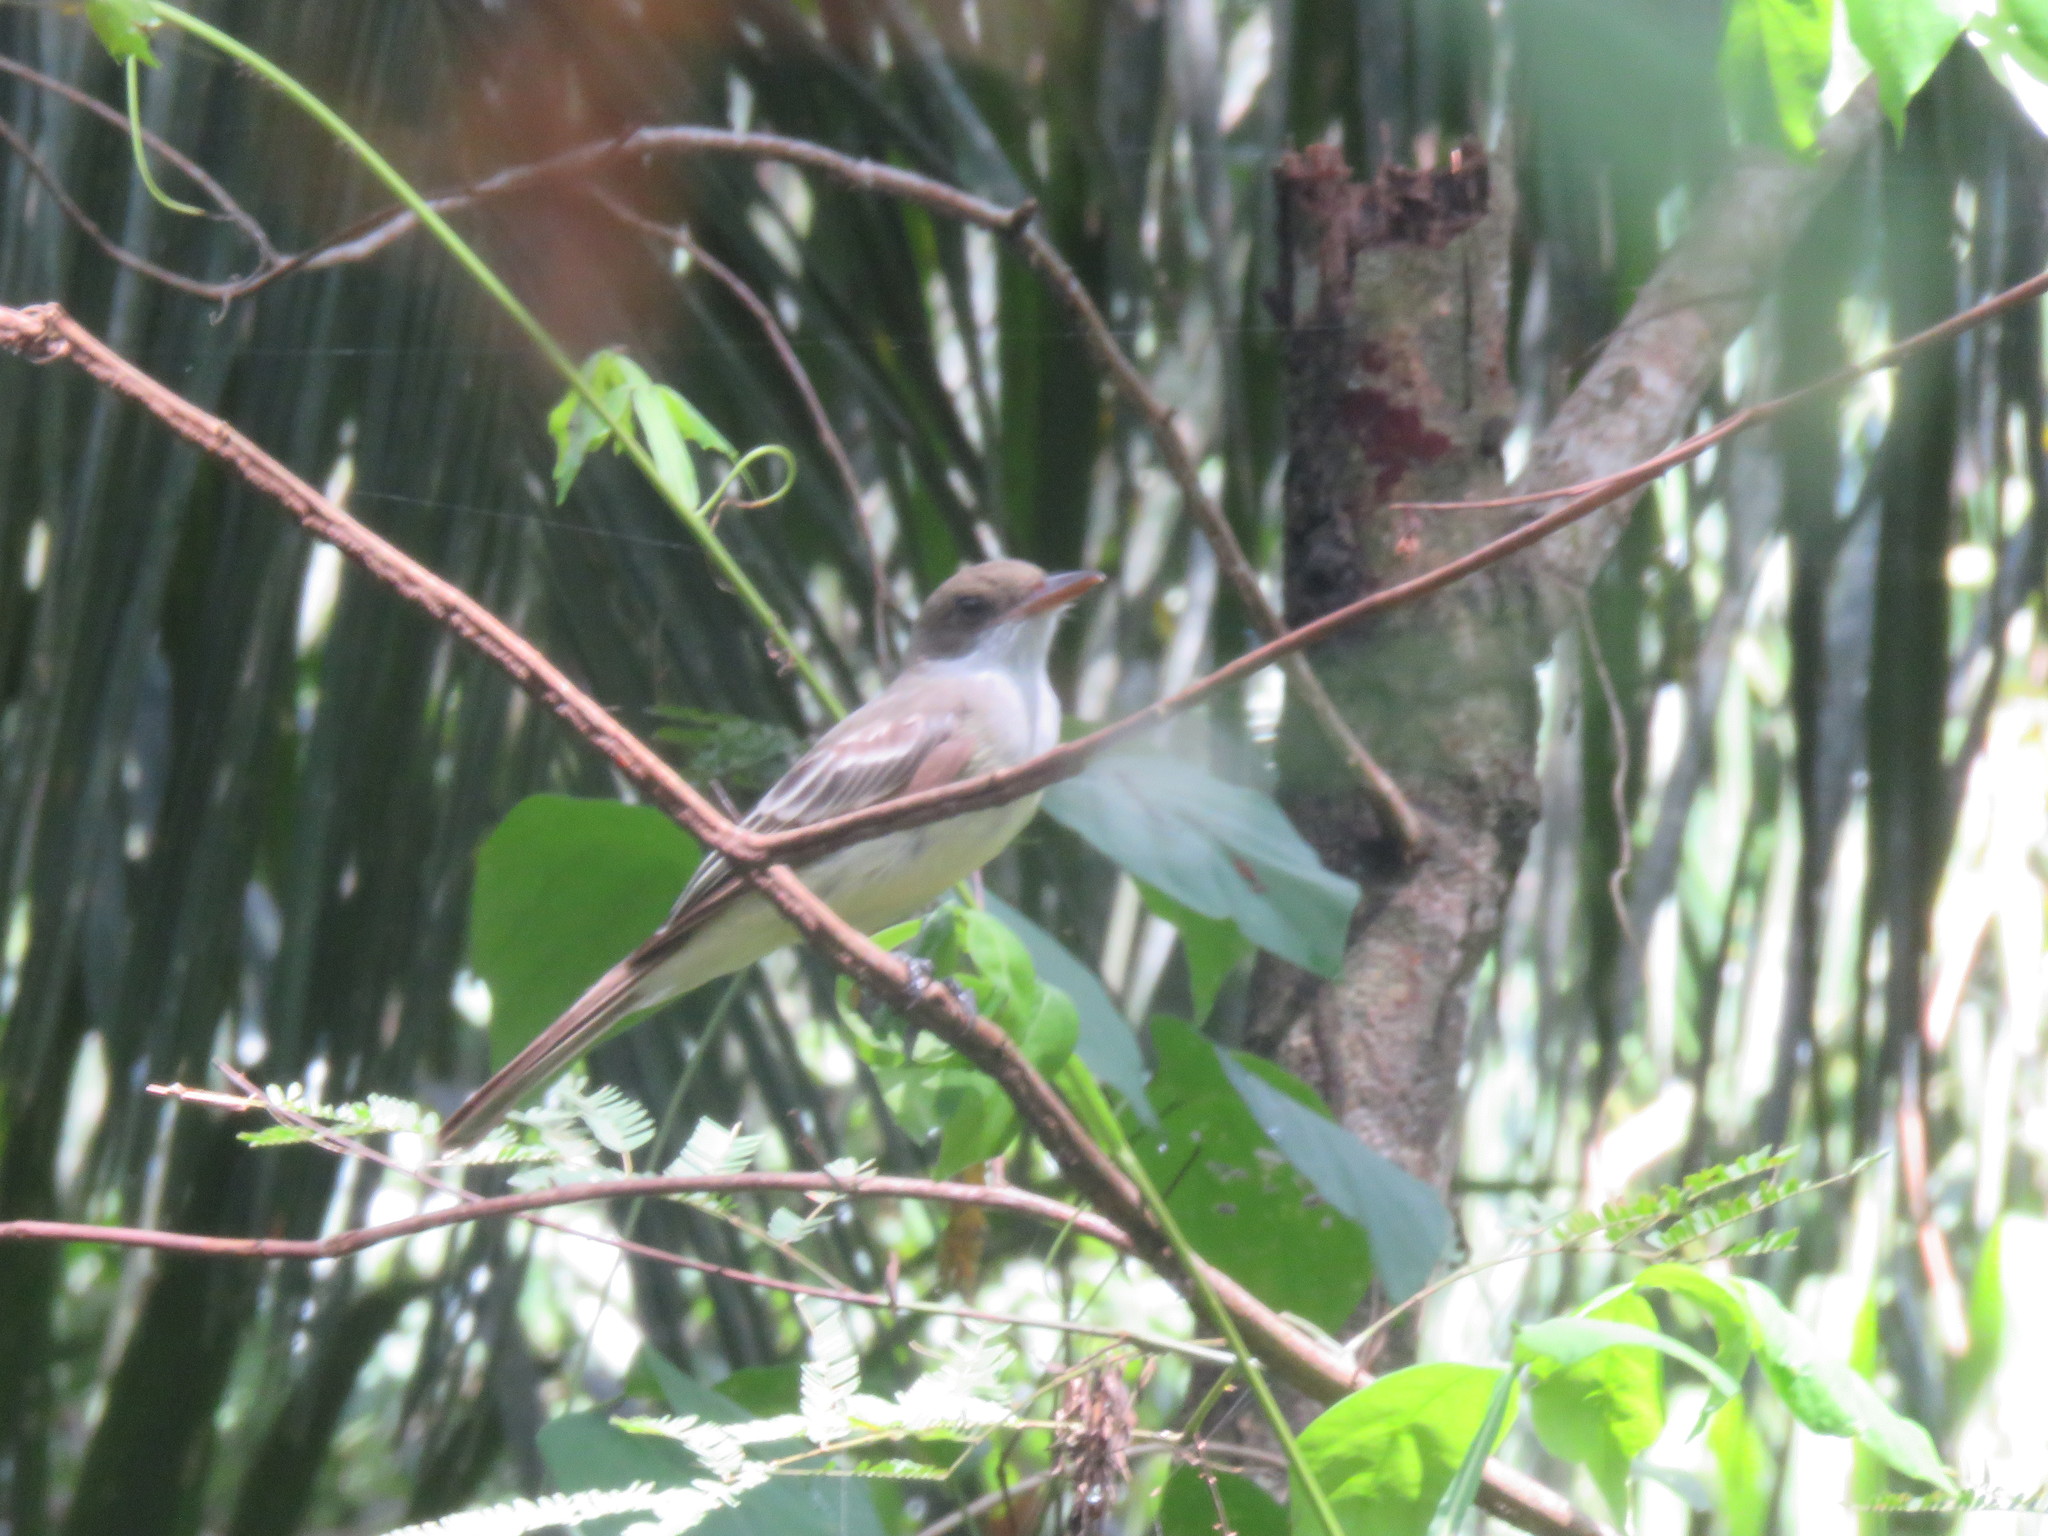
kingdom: Animalia
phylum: Chordata
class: Aves
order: Passeriformes
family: Tyrannidae
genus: Myiarchus
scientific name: Myiarchus swainsoni
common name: Swainson's flycatcher
